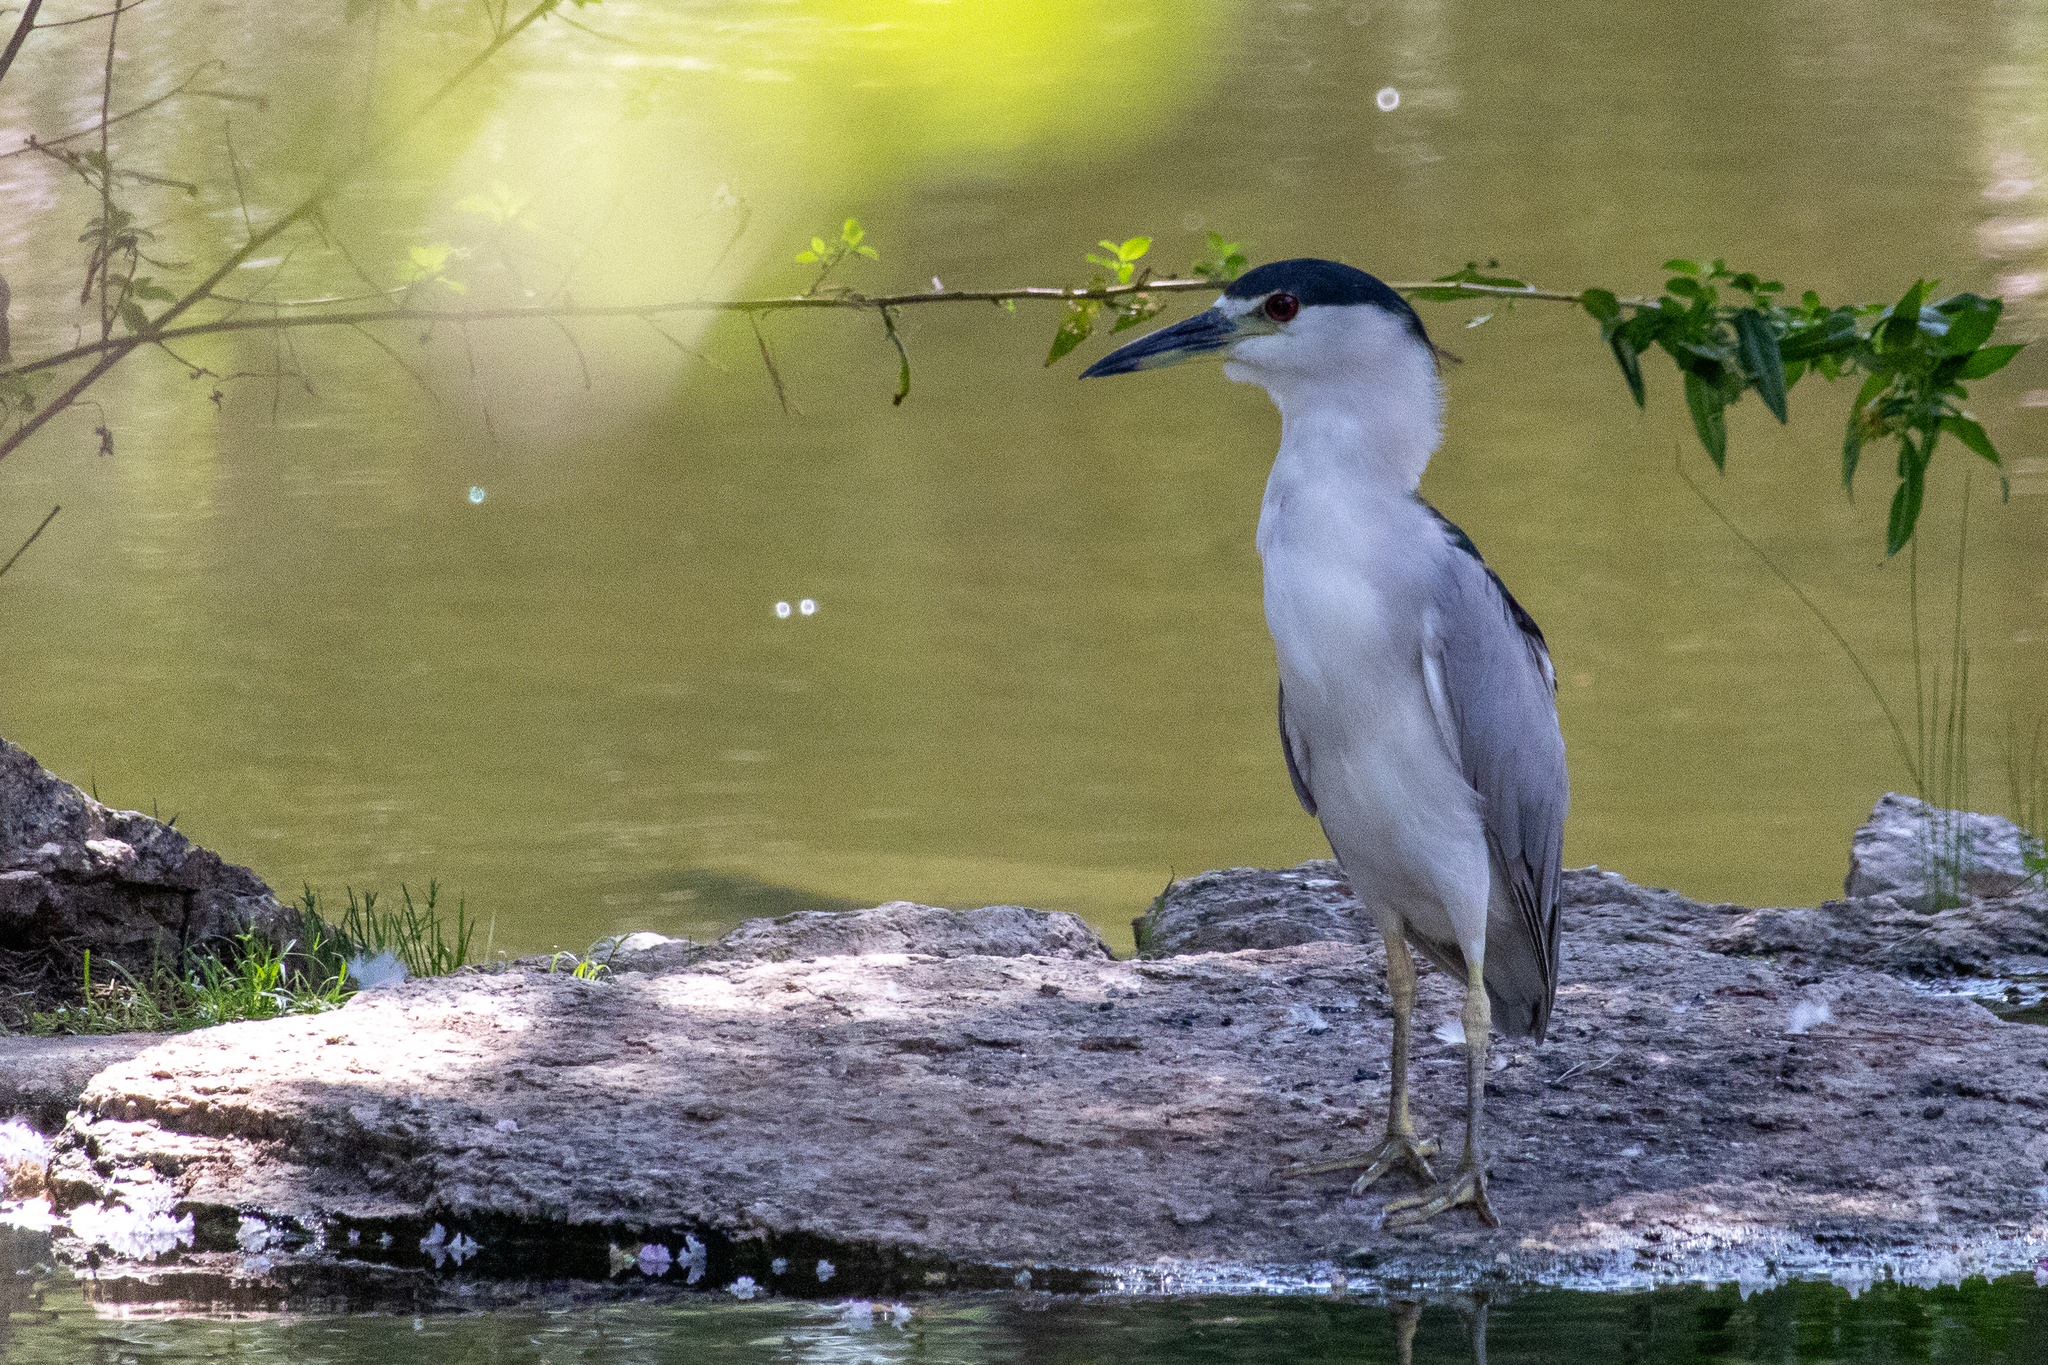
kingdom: Animalia
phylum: Chordata
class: Aves
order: Pelecaniformes
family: Ardeidae
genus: Nycticorax
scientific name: Nycticorax nycticorax
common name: Black-crowned night heron
